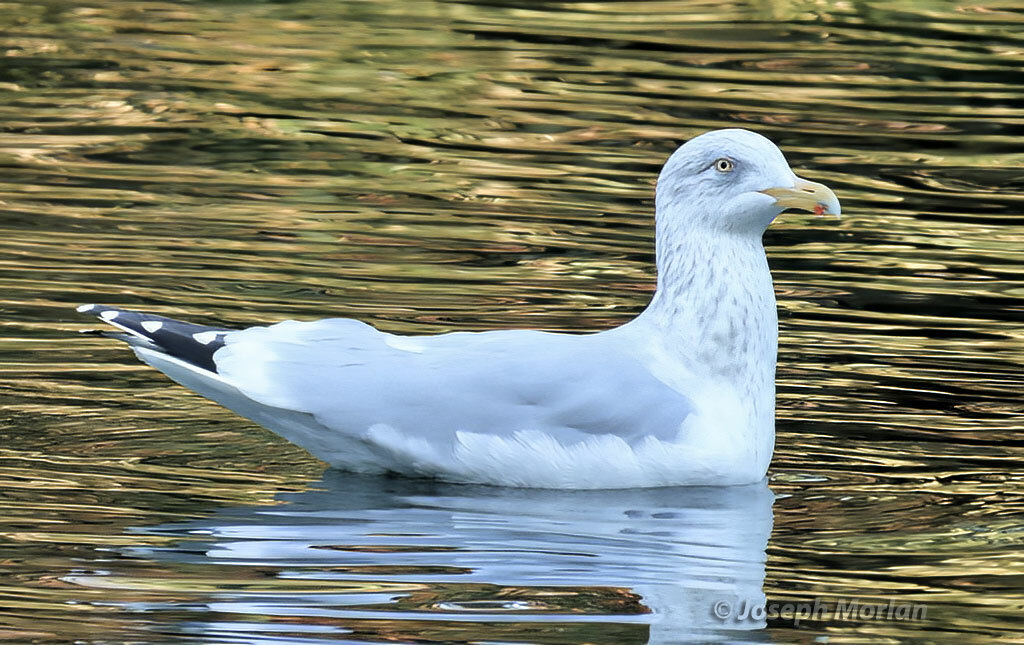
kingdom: Animalia
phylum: Chordata
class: Aves
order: Charadriiformes
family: Laridae
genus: Larus
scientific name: Larus argentatus
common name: Herring gull
